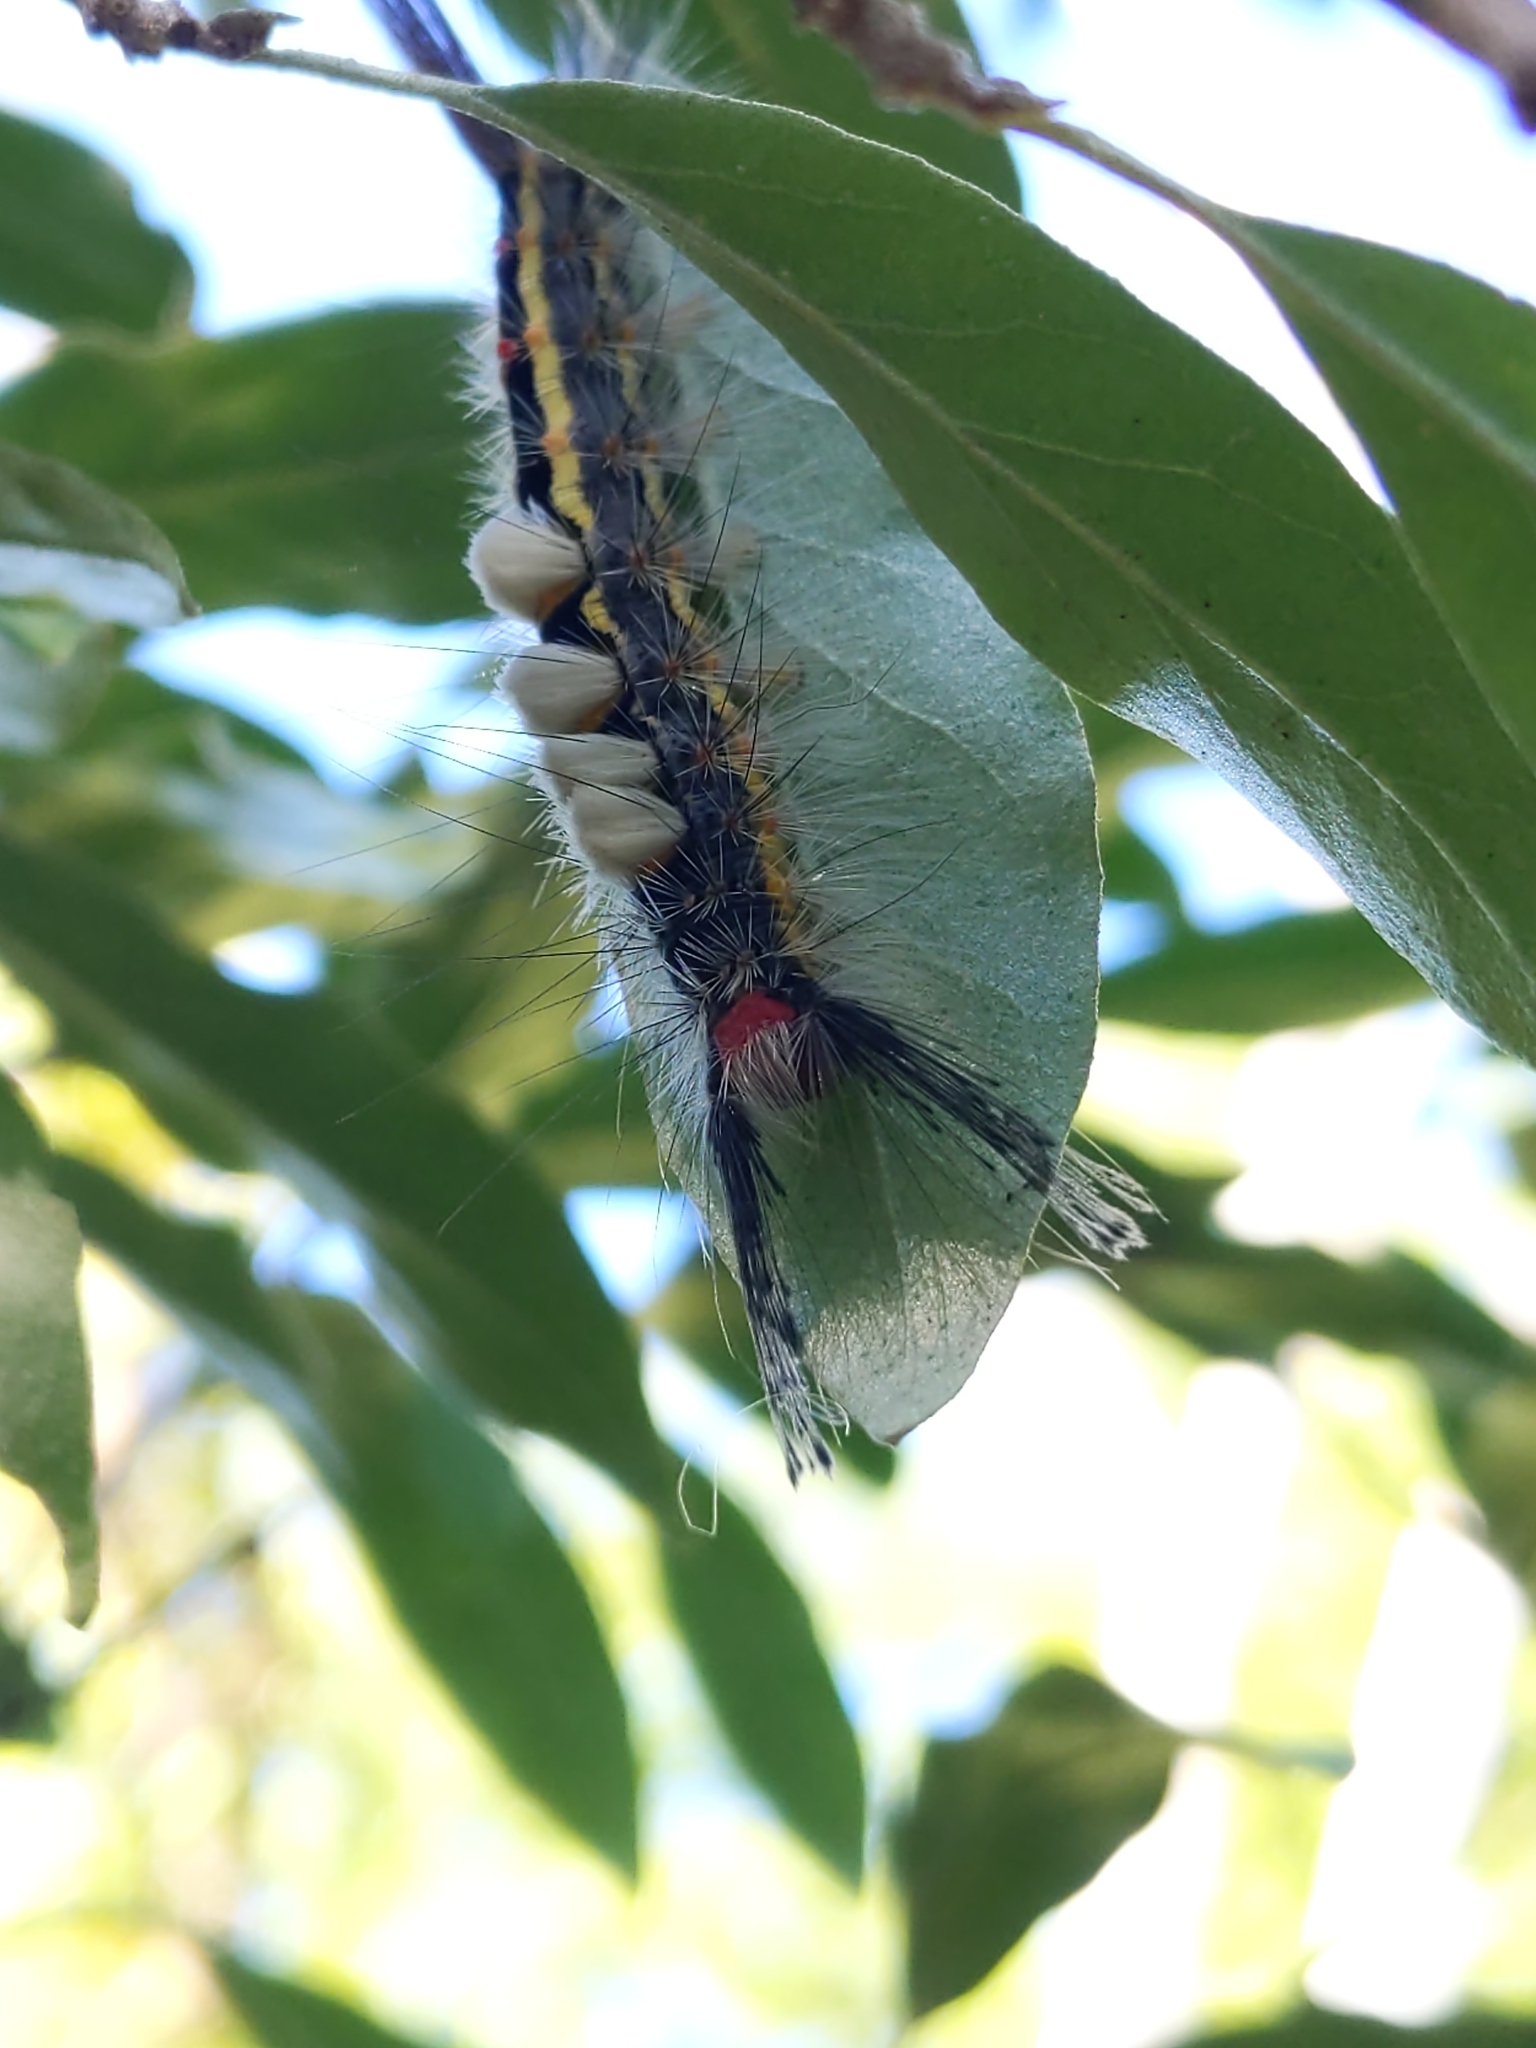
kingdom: Animalia
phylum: Arthropoda
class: Insecta
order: Lepidoptera
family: Erebidae
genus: Orgyia
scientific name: Orgyia leucostigma
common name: White-marked tussock moth
